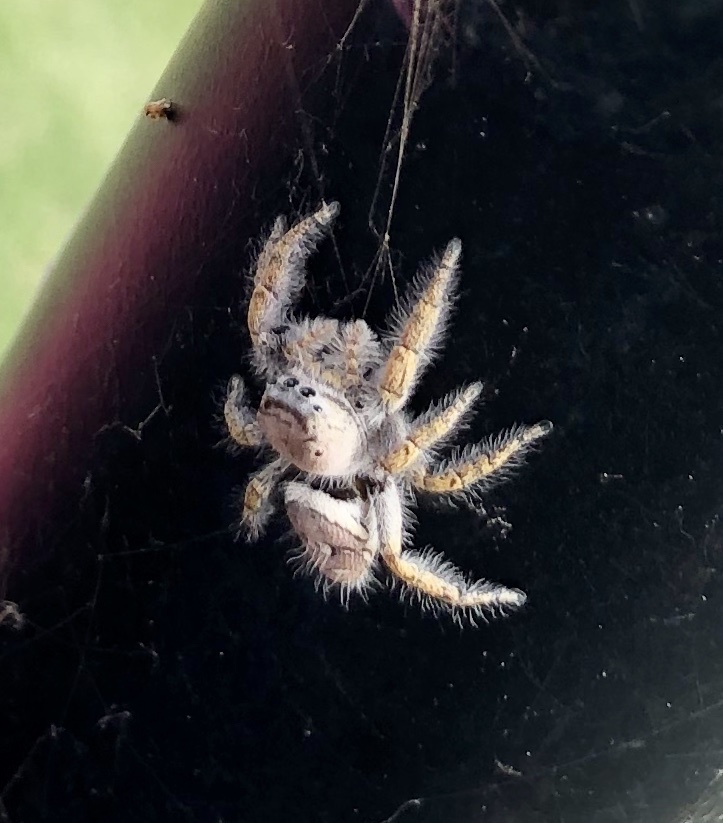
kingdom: Animalia
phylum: Arthropoda
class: Arachnida
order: Araneae
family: Salticidae
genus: Phidippus
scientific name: Phidippus carolinensis
